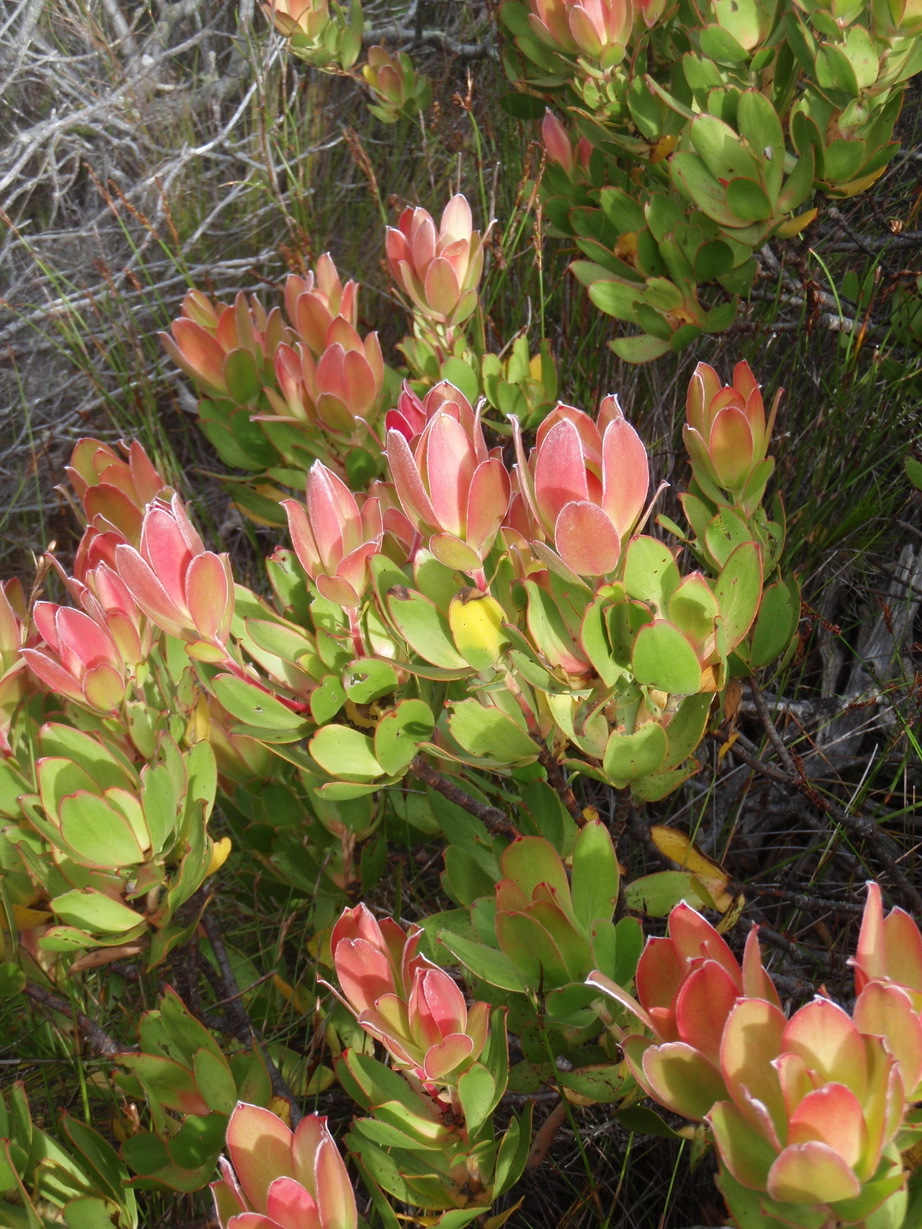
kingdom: Plantae
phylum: Tracheophyta
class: Magnoliopsida
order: Proteales
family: Proteaceae
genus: Leucadendron
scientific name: Leucadendron gandogeri
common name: Broad-leaf conebush
